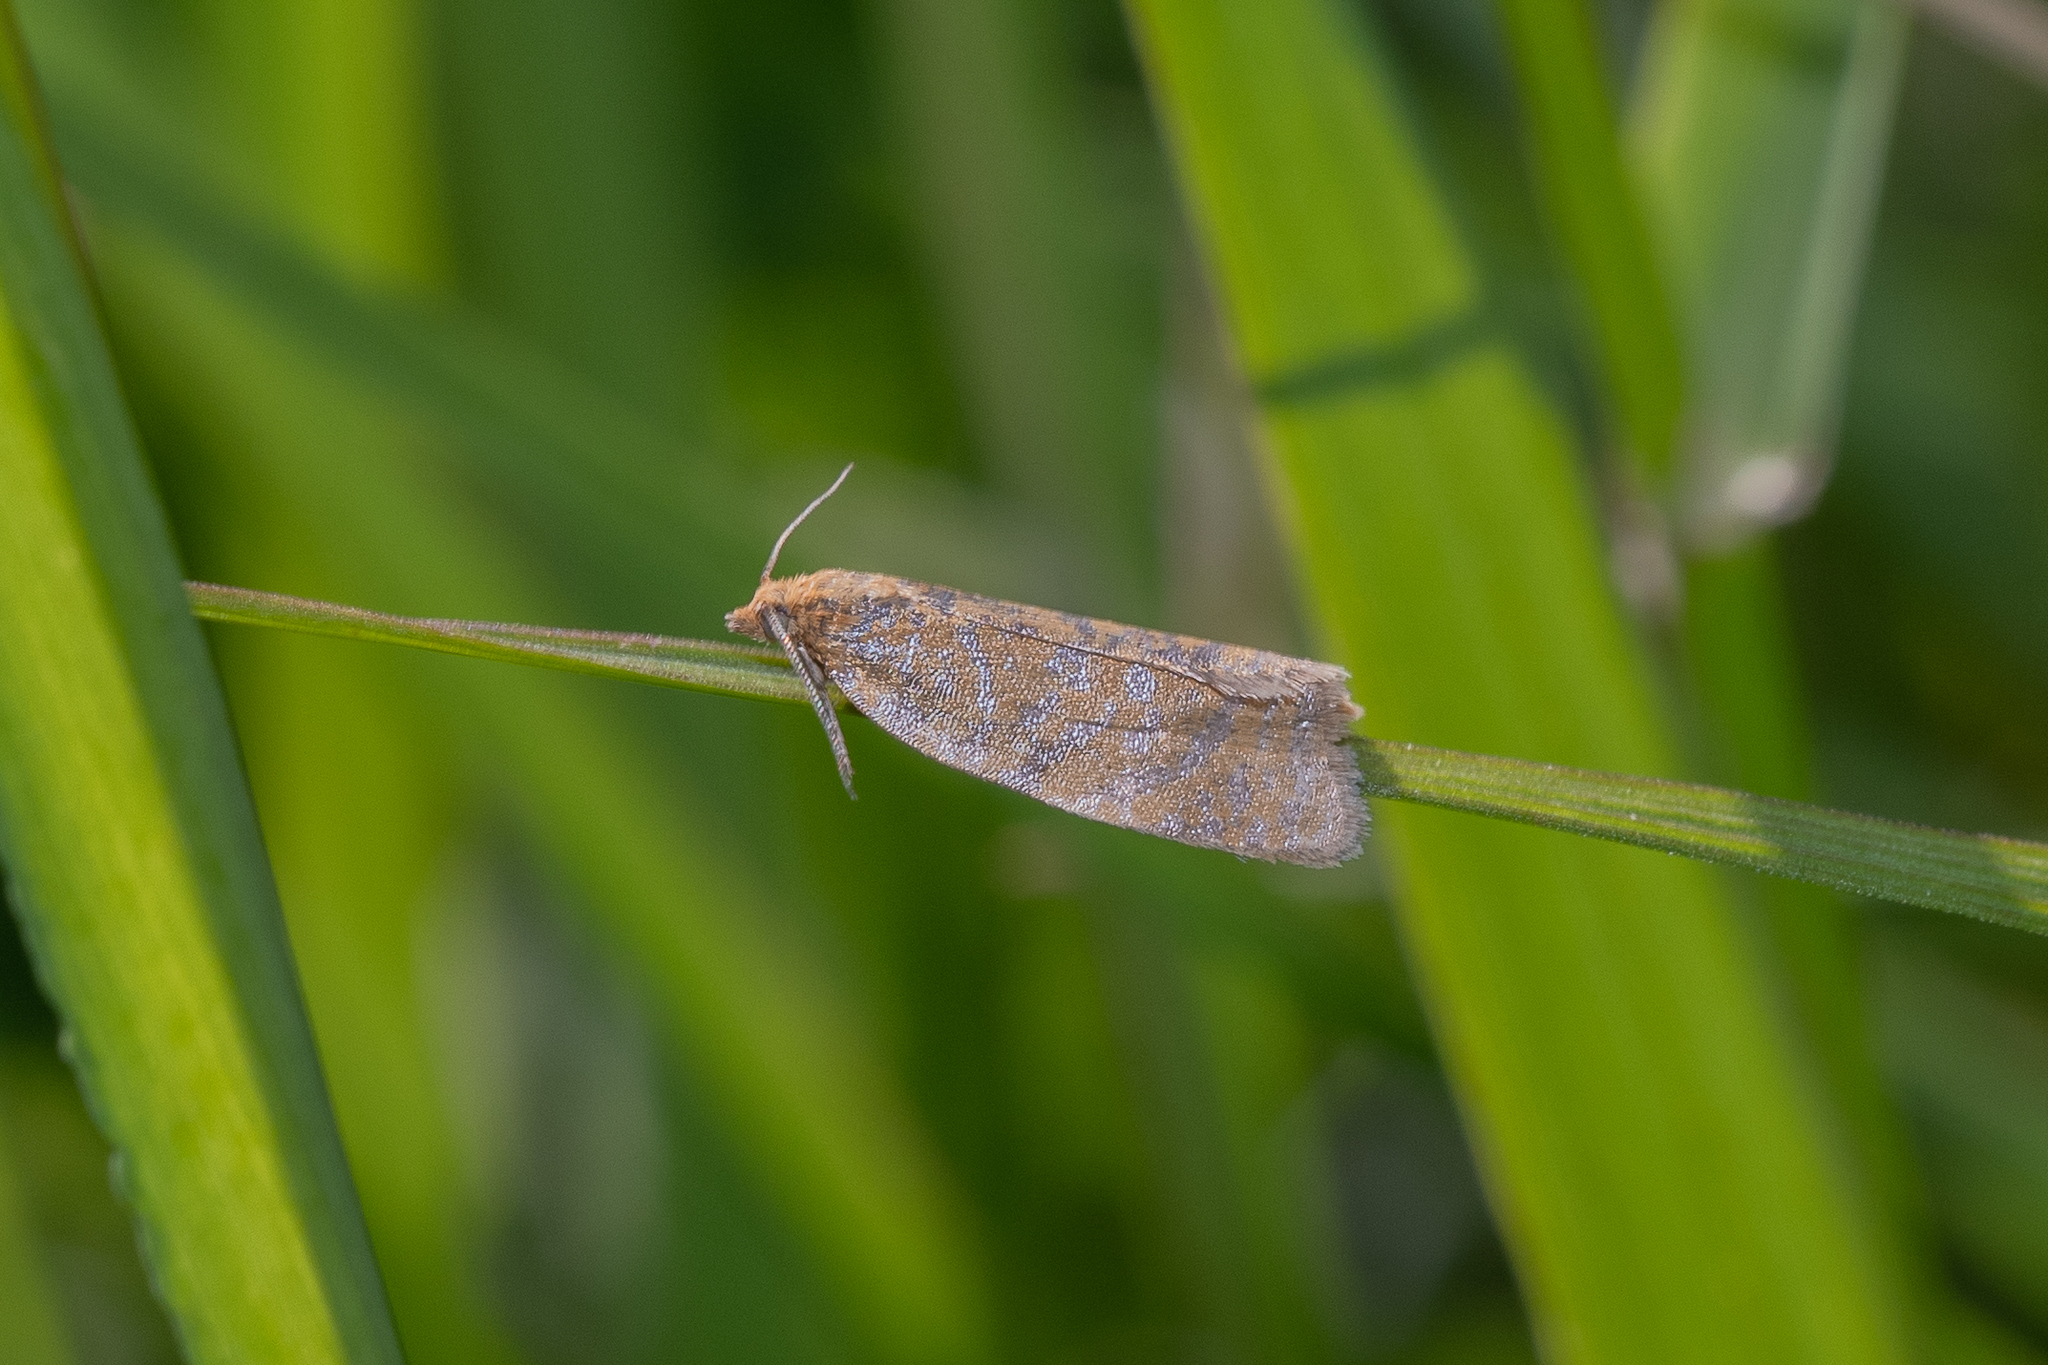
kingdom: Animalia
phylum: Arthropoda
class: Insecta
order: Lepidoptera
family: Tortricidae
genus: Clepsis
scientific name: Clepsis rogana
